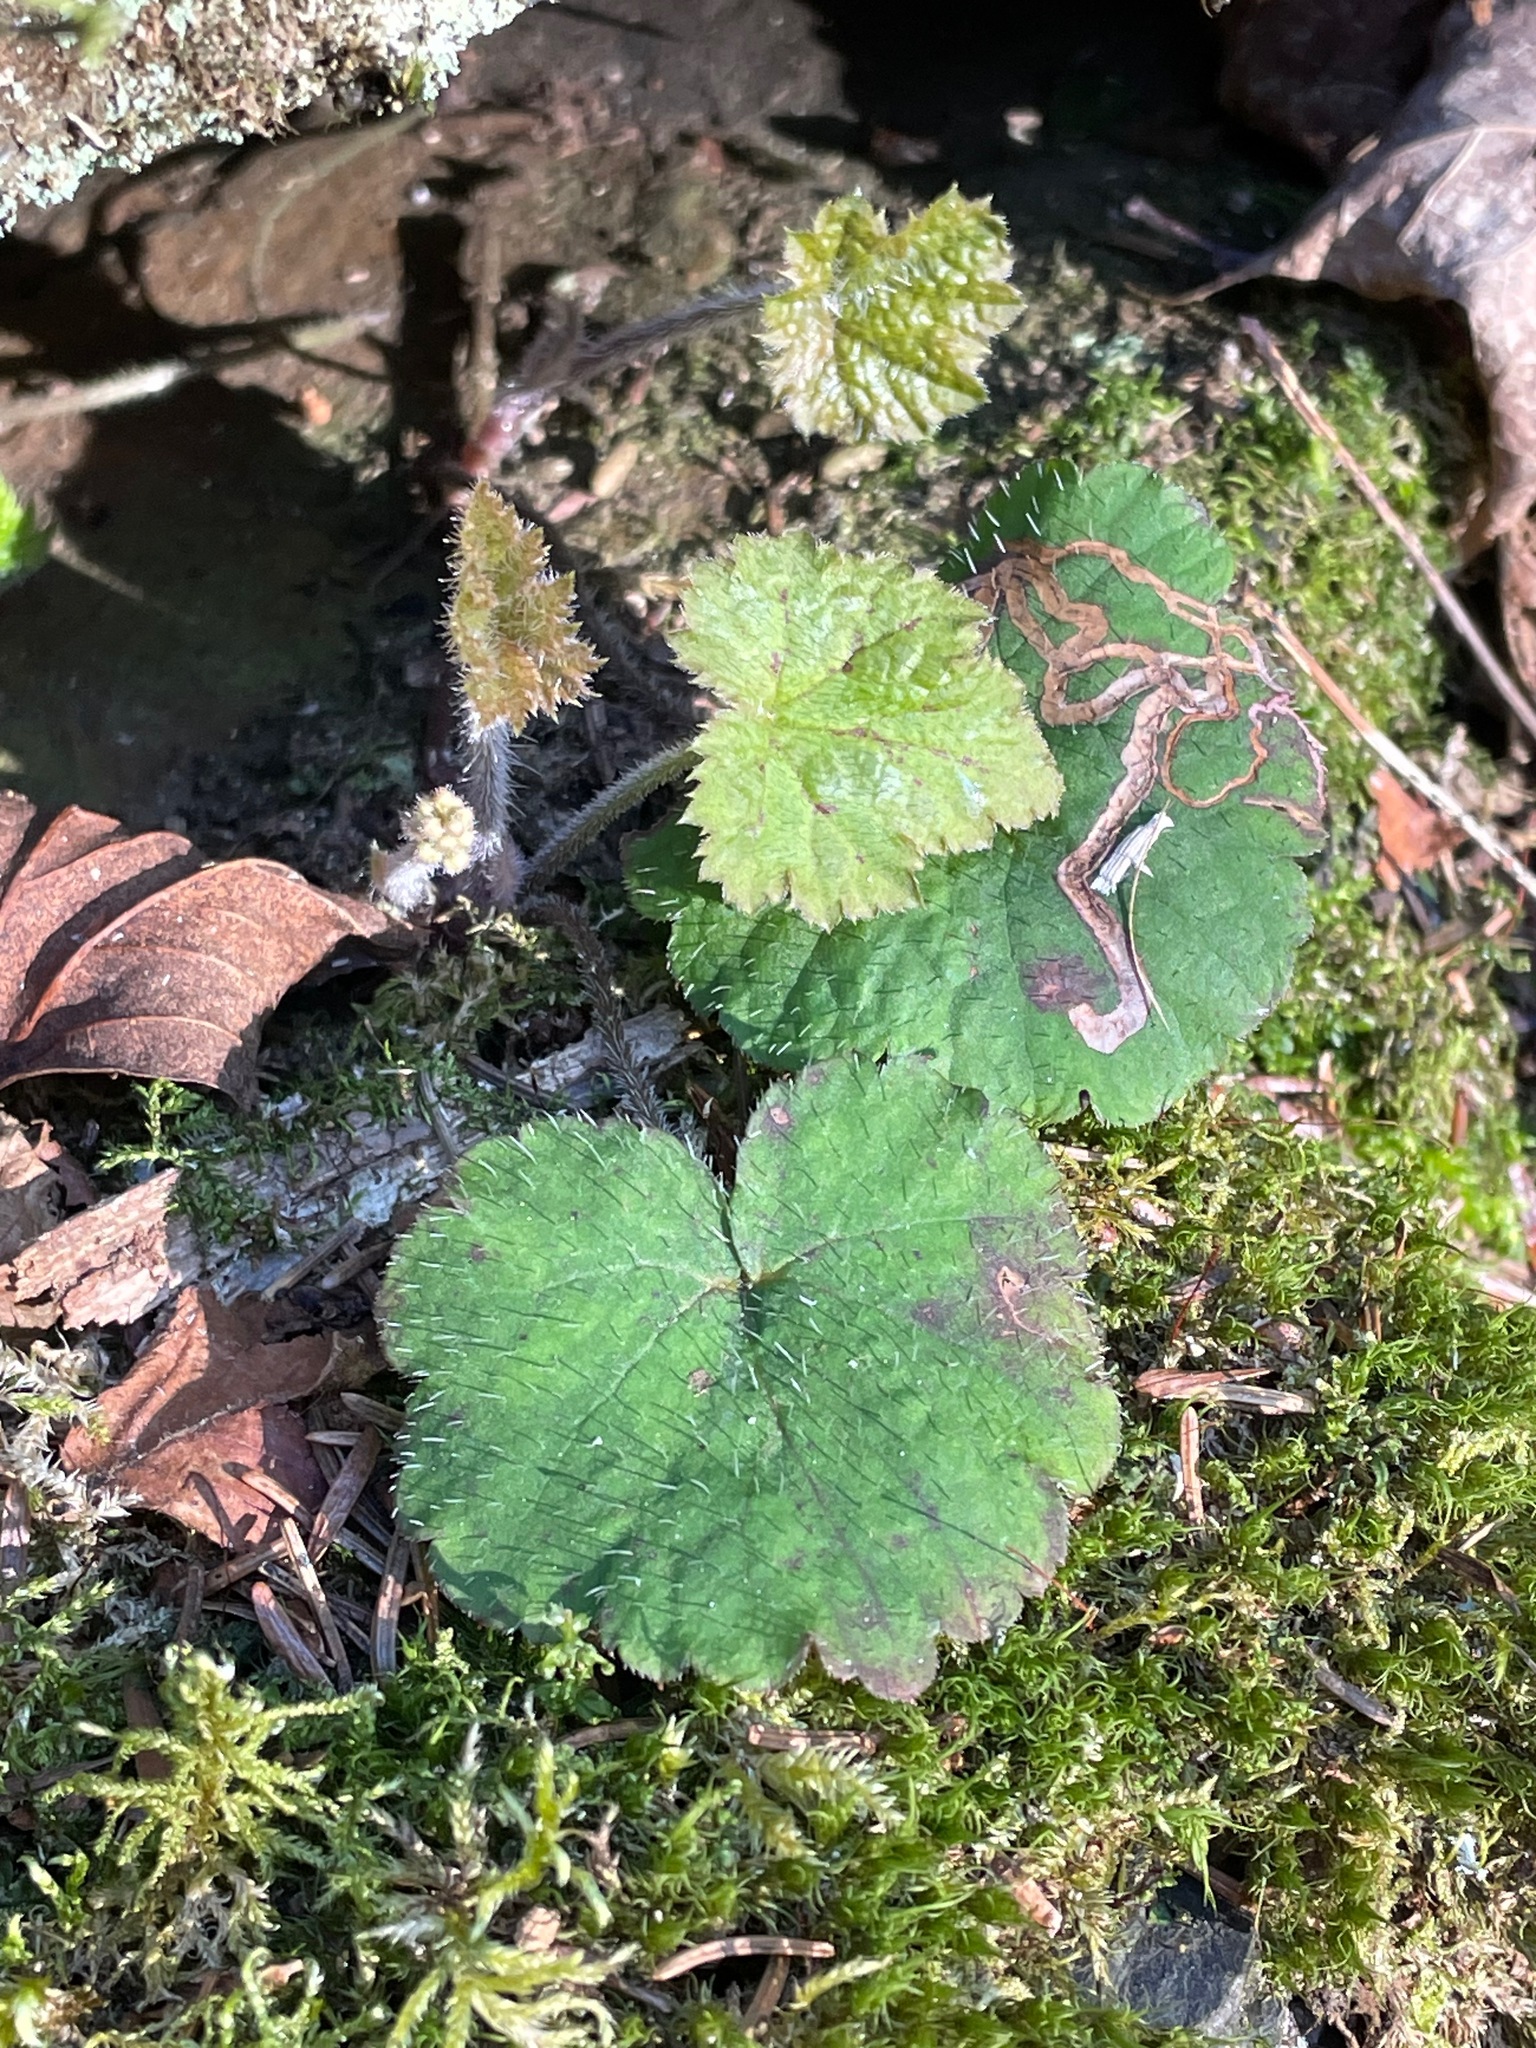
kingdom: Plantae
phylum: Tracheophyta
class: Magnoliopsida
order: Saxifragales
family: Saxifragaceae
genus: Tiarella
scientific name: Tiarella stolonifera
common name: Stoloniferous foamflower
